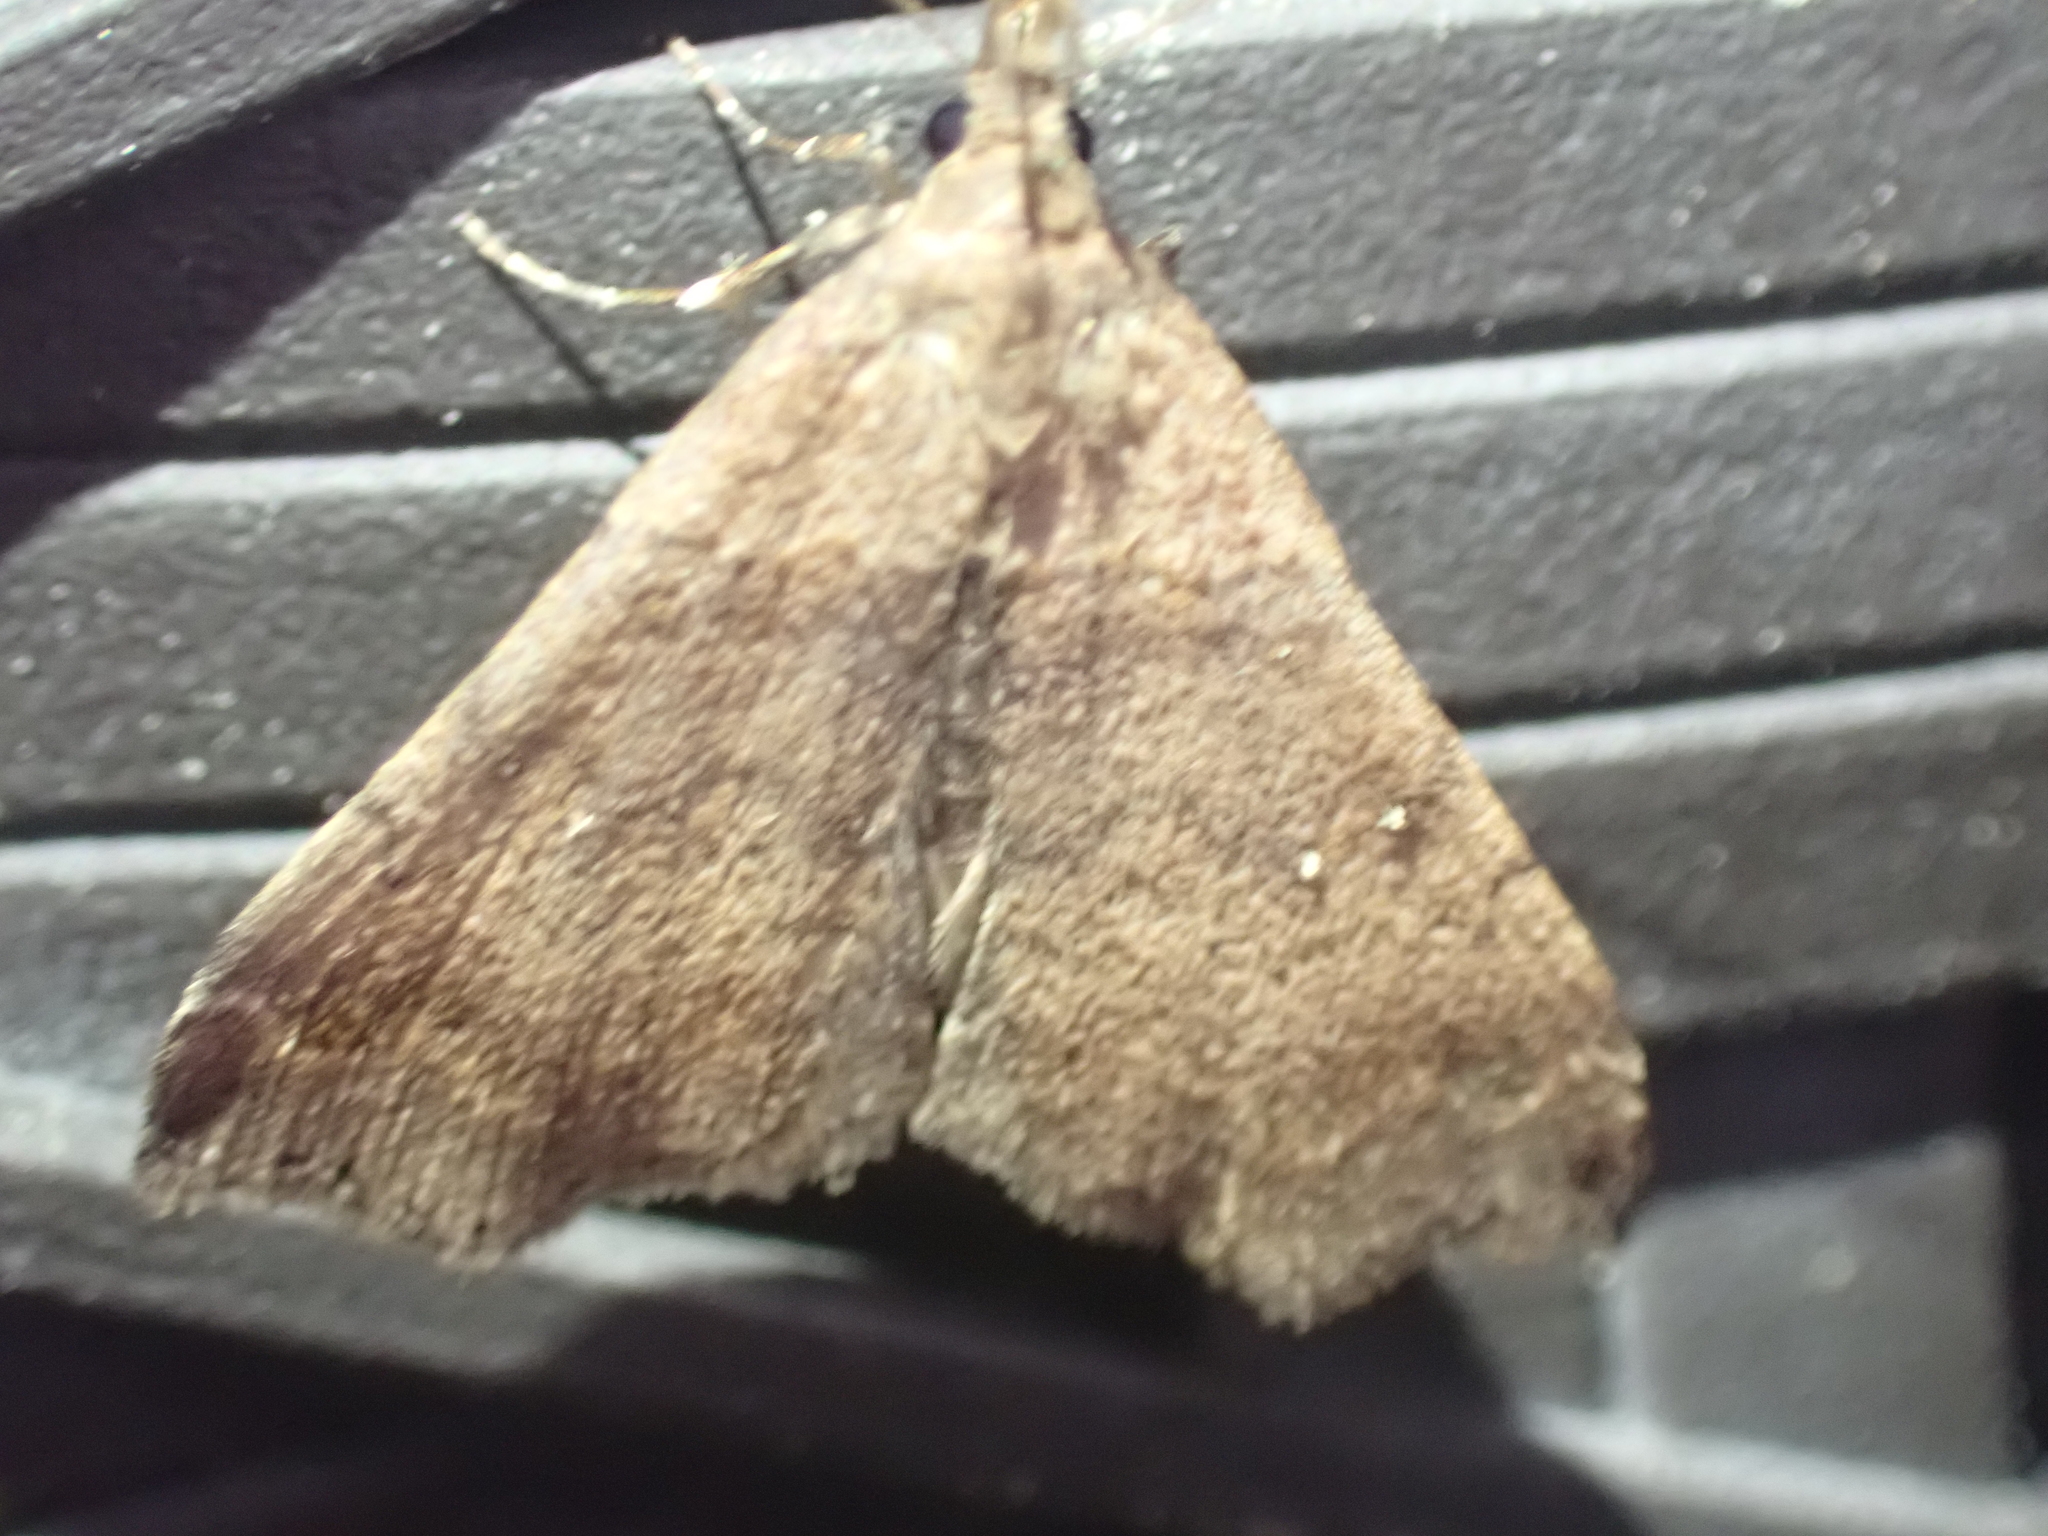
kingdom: Animalia
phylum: Arthropoda
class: Insecta
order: Lepidoptera
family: Erebidae
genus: Lascoria
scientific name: Lascoria ambigualis
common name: Ambiguous moth
